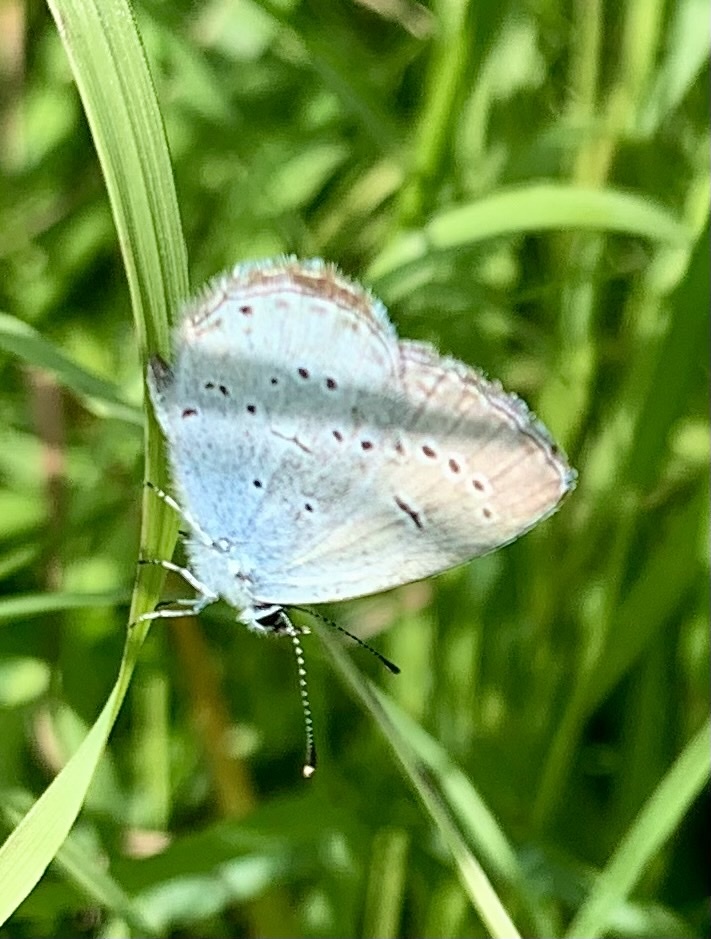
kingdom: Animalia
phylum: Arthropoda
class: Insecta
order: Lepidoptera
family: Lycaenidae
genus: Elkalyce
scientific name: Elkalyce alcetas
